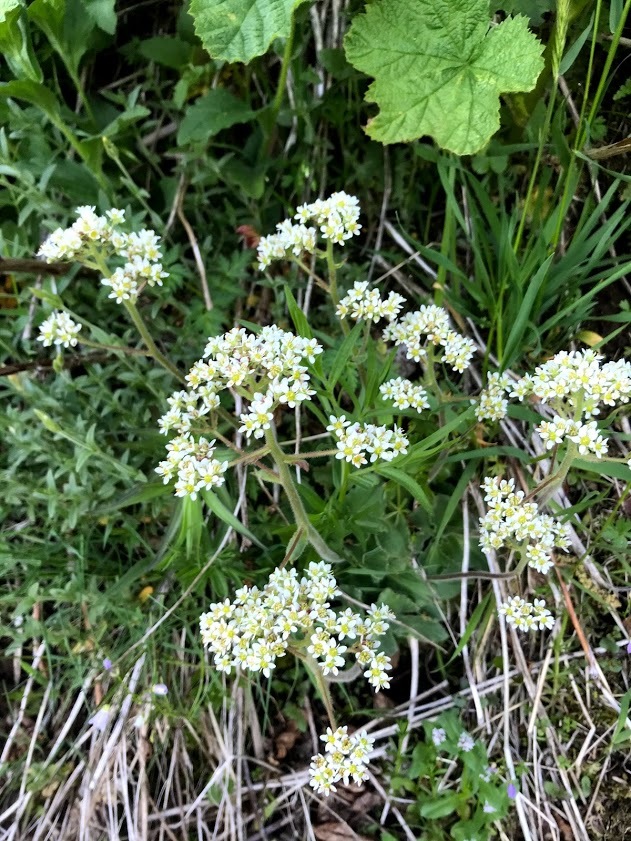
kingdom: Plantae
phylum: Tracheophyta
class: Magnoliopsida
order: Saxifragales
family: Saxifragaceae
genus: Micranthes
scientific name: Micranthes hitchcockiana
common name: Hitchcock's saxifrage
